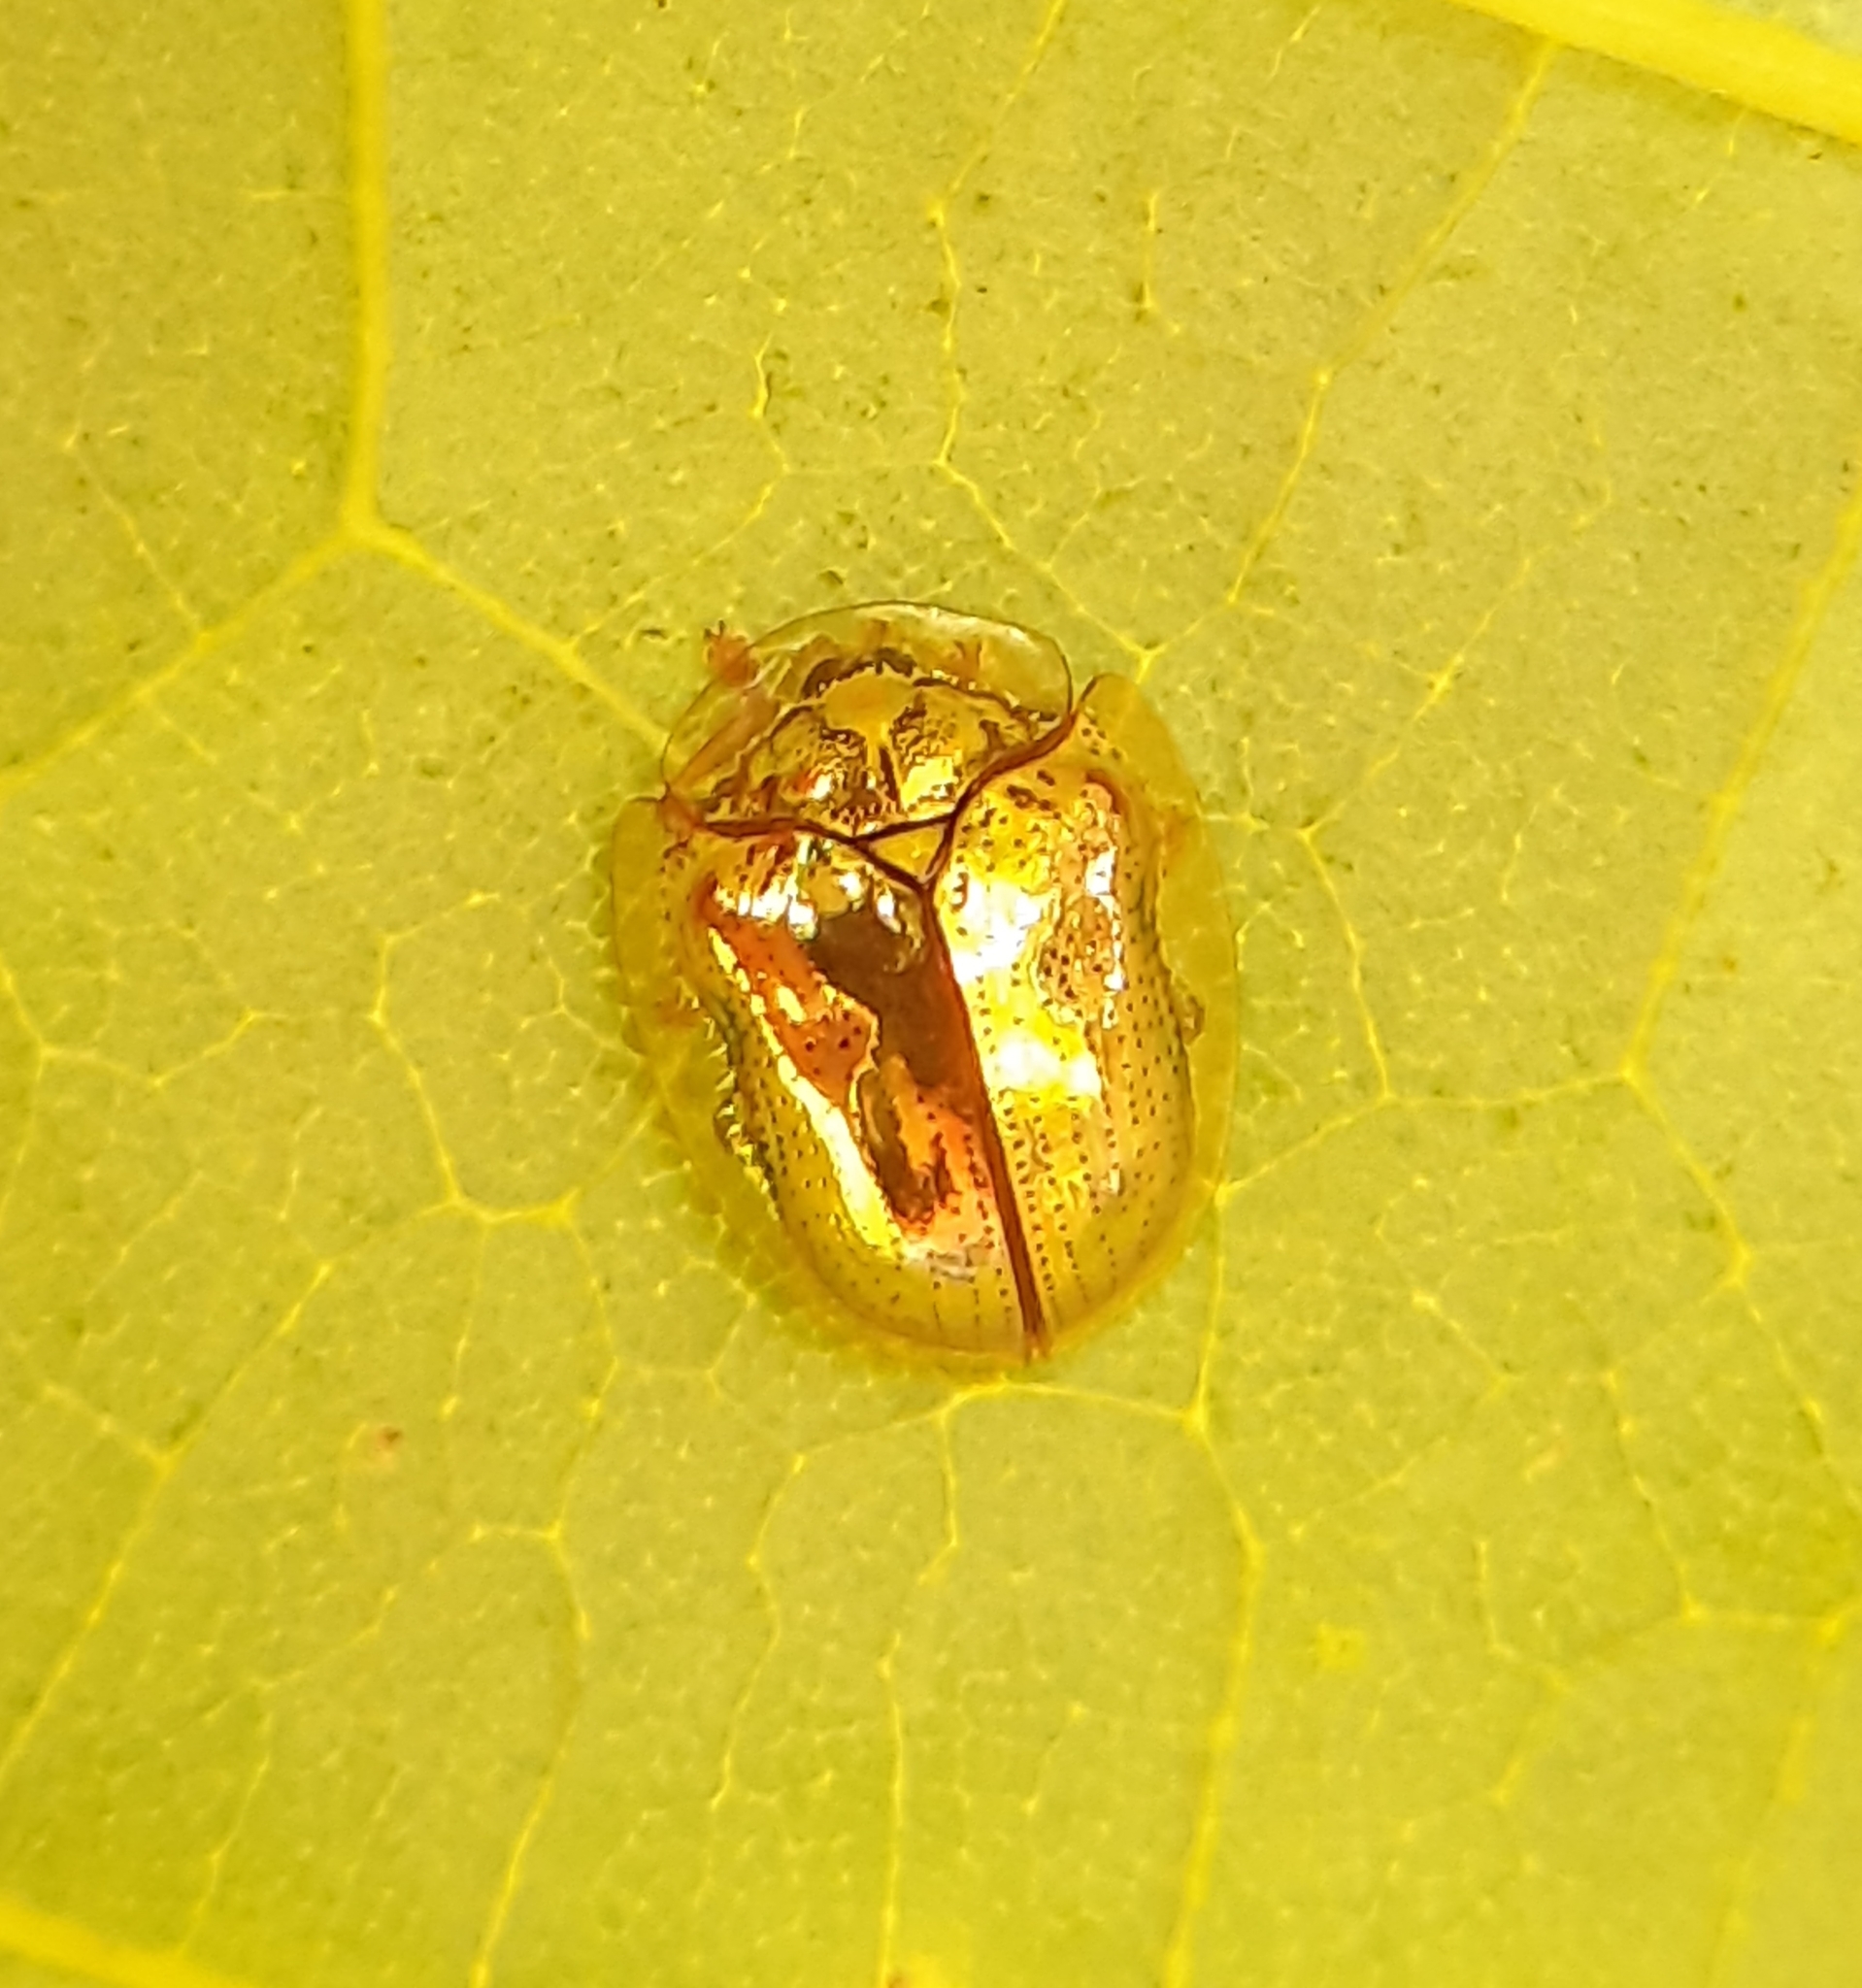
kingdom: Animalia
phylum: Arthropoda
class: Insecta
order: Coleoptera
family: Chrysomelidae
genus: Charidotella
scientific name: Charidotella sexpunctata
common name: Golden tortoise beetle
